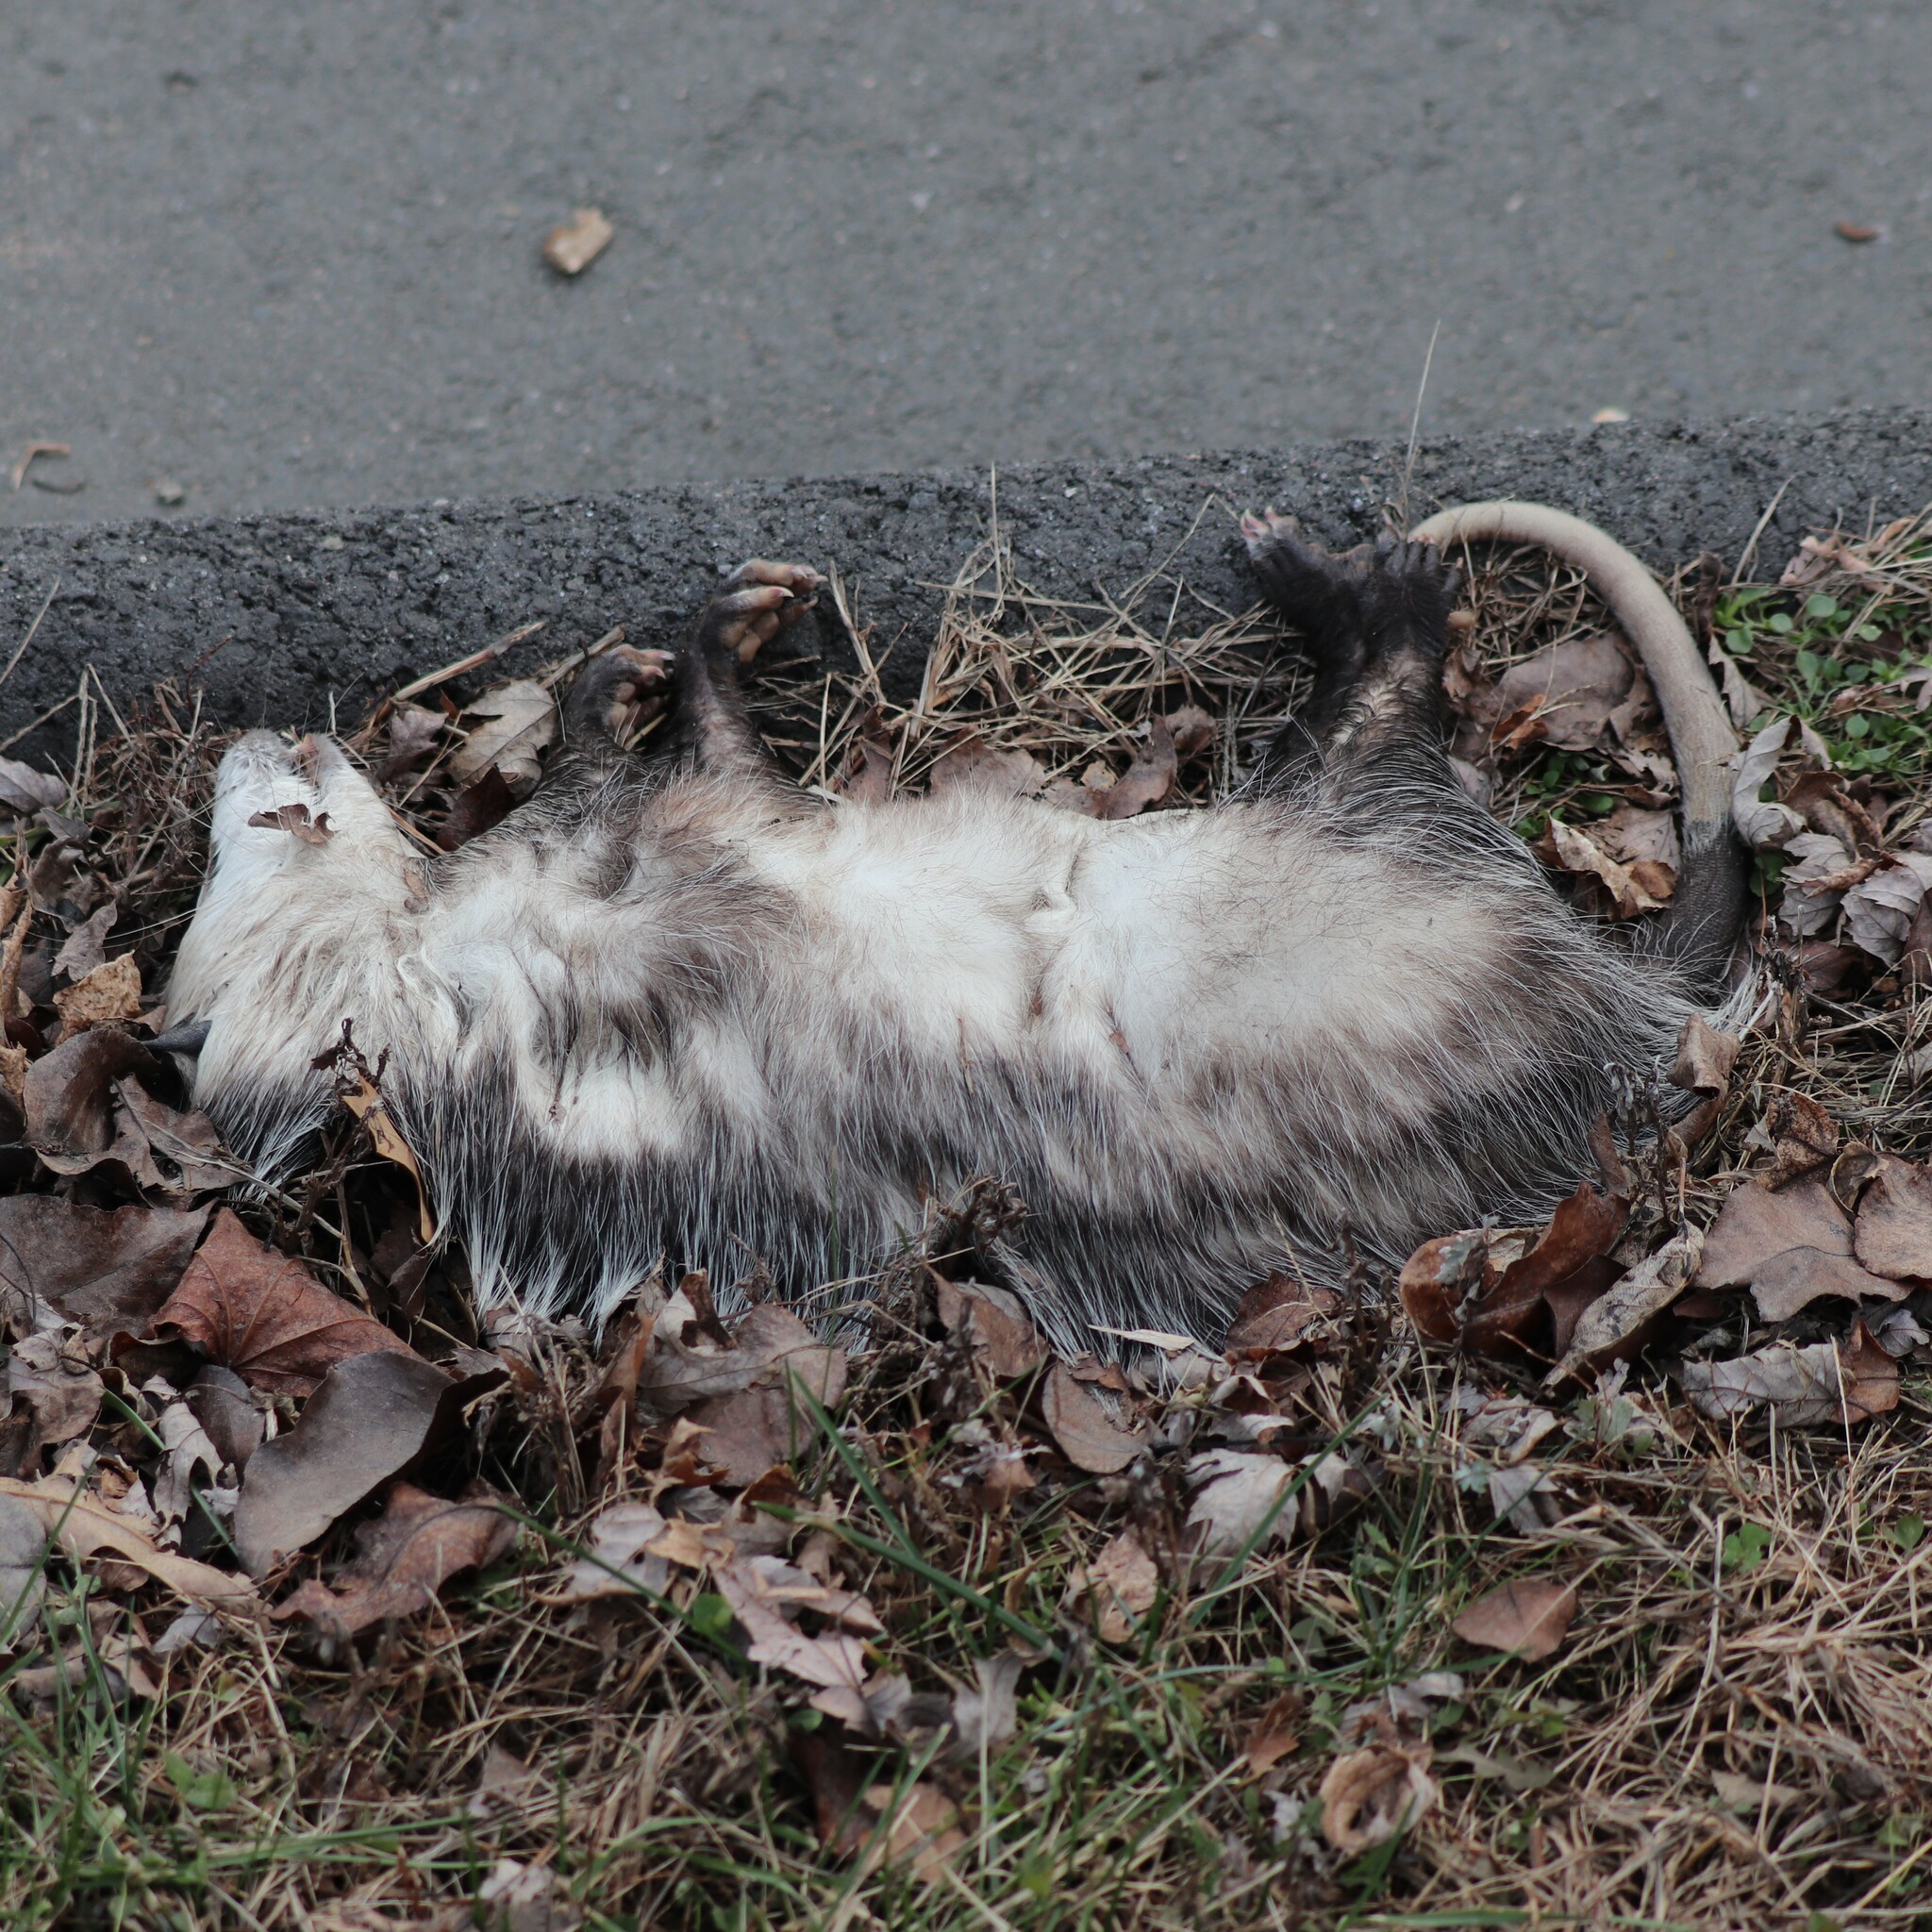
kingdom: Animalia
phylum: Chordata
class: Mammalia
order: Didelphimorphia
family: Didelphidae
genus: Didelphis
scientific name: Didelphis virginiana
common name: Virginia opossum
